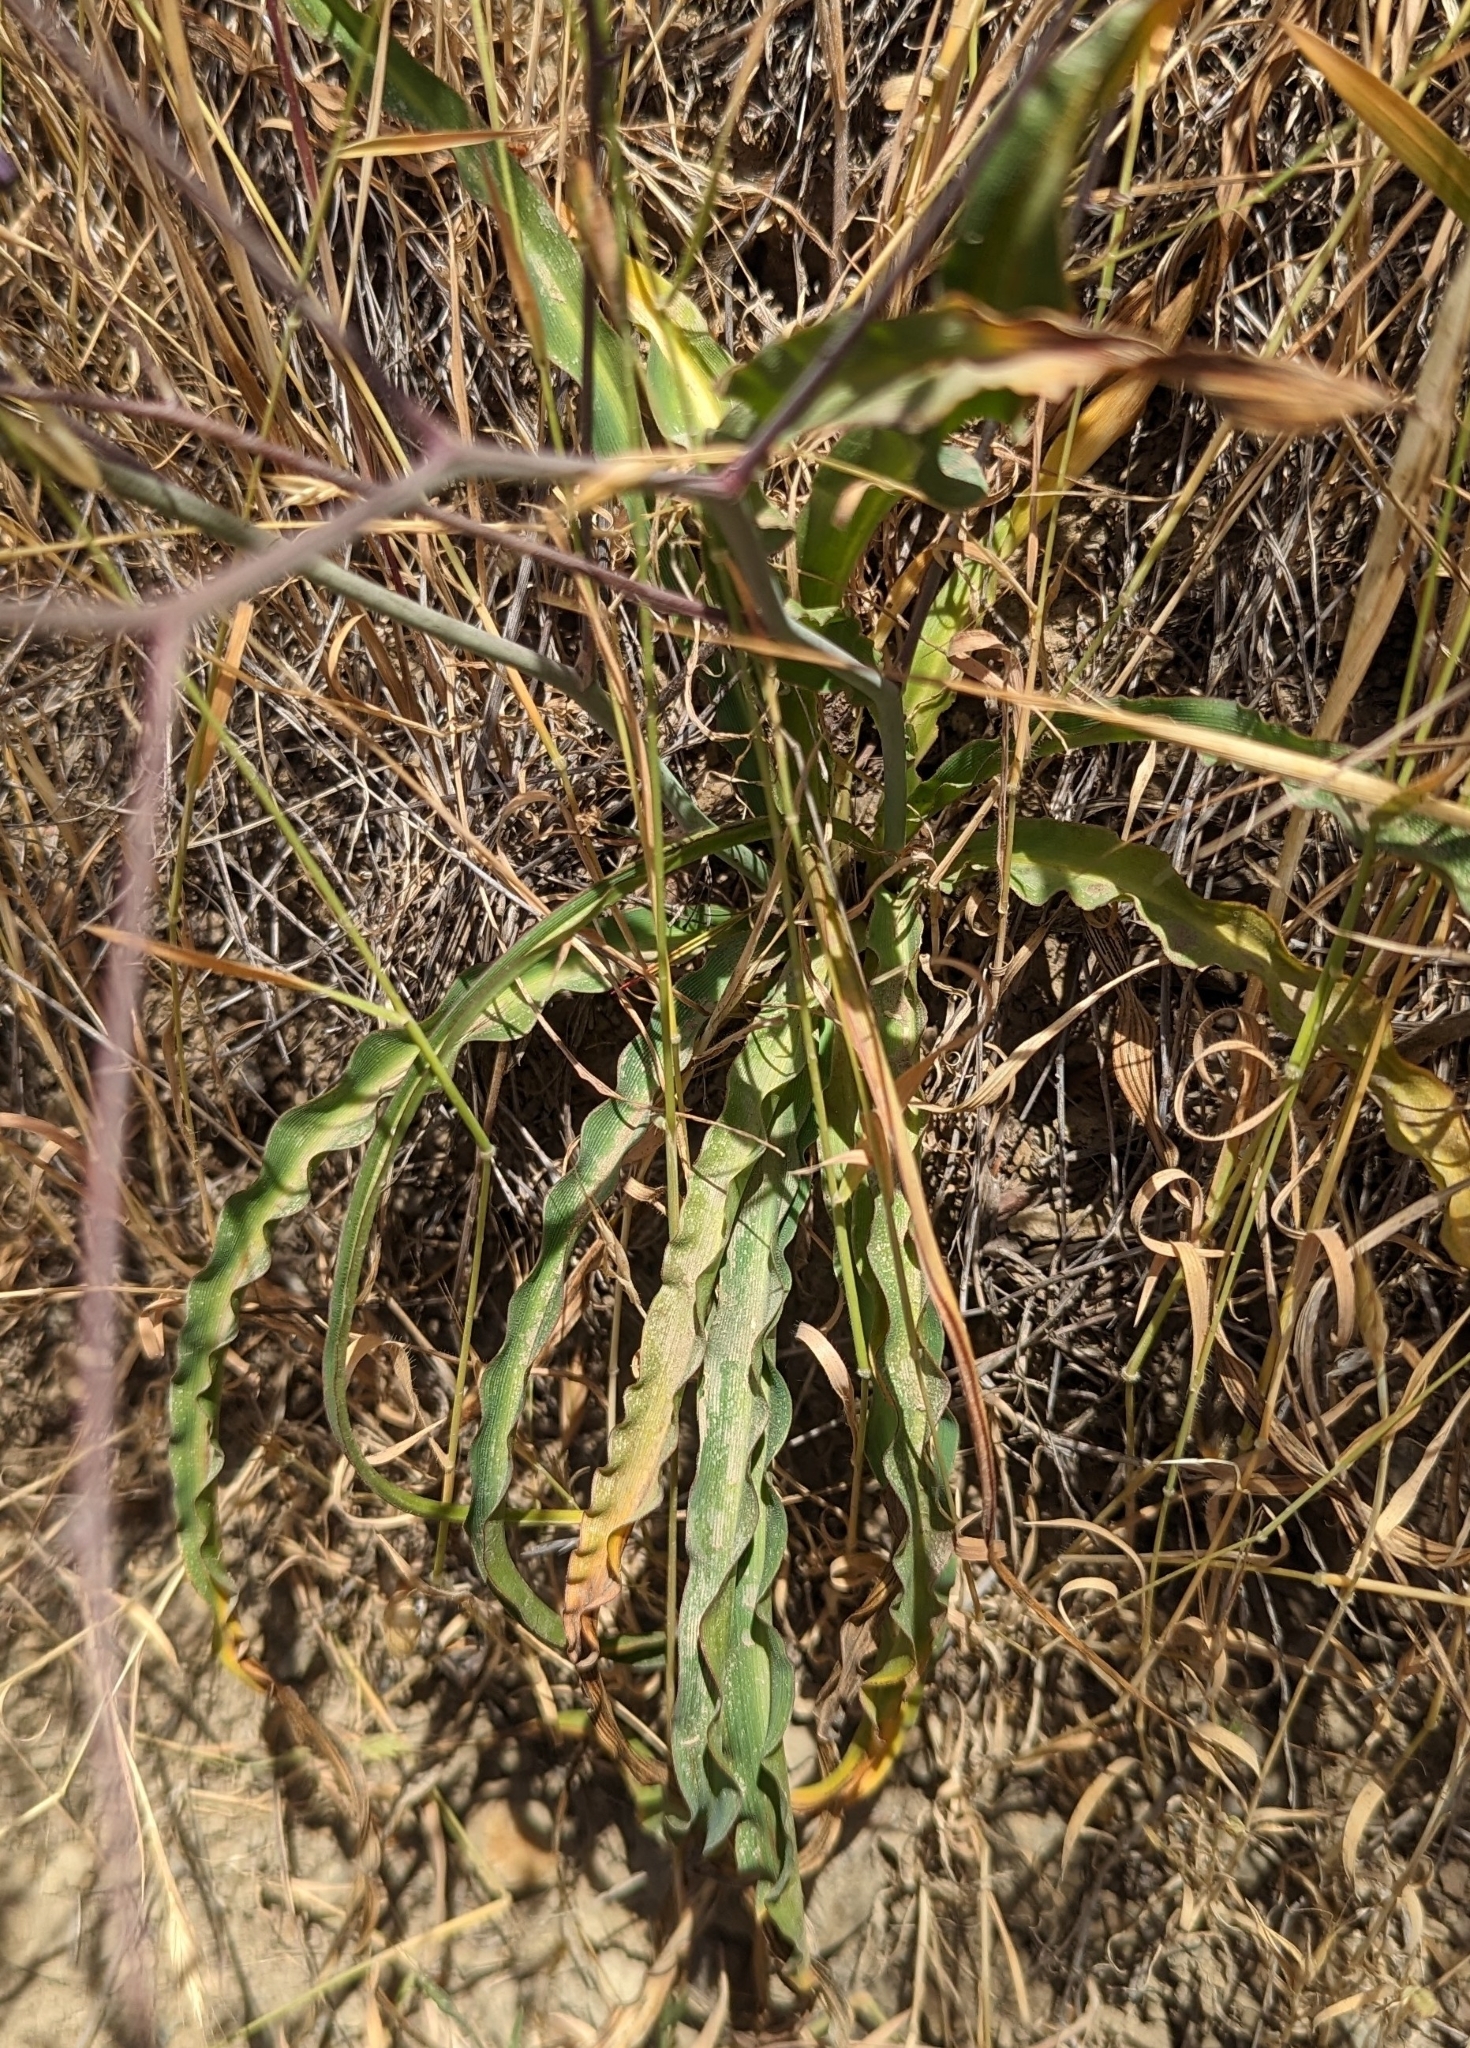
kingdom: Plantae
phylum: Tracheophyta
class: Liliopsida
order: Asparagales
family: Asparagaceae
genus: Chlorogalum
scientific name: Chlorogalum pomeridianum
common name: Amole
